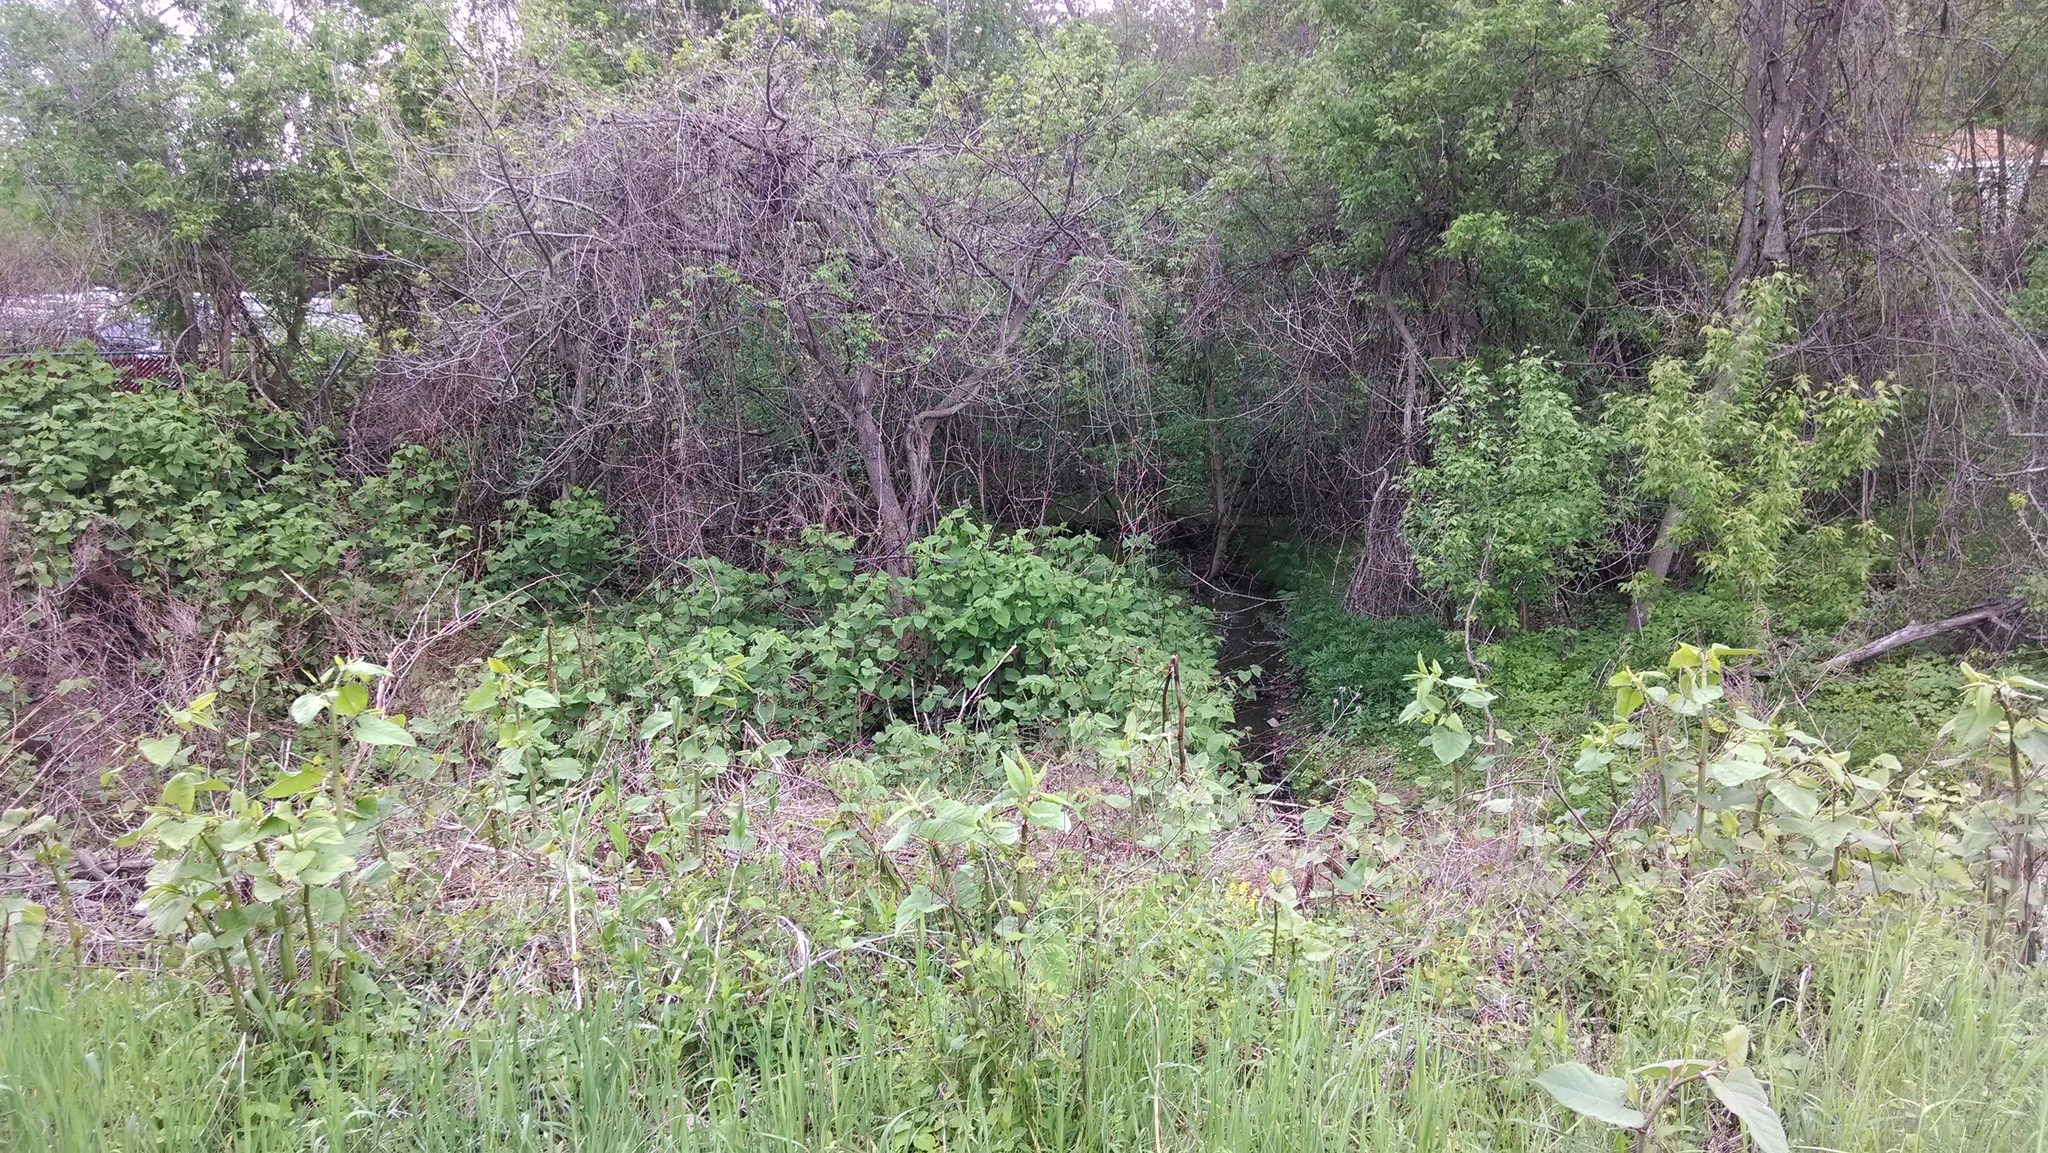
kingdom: Plantae
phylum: Tracheophyta
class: Magnoliopsida
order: Caryophyllales
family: Polygonaceae
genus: Reynoutria
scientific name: Reynoutria japonica
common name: Japanese knotweed
